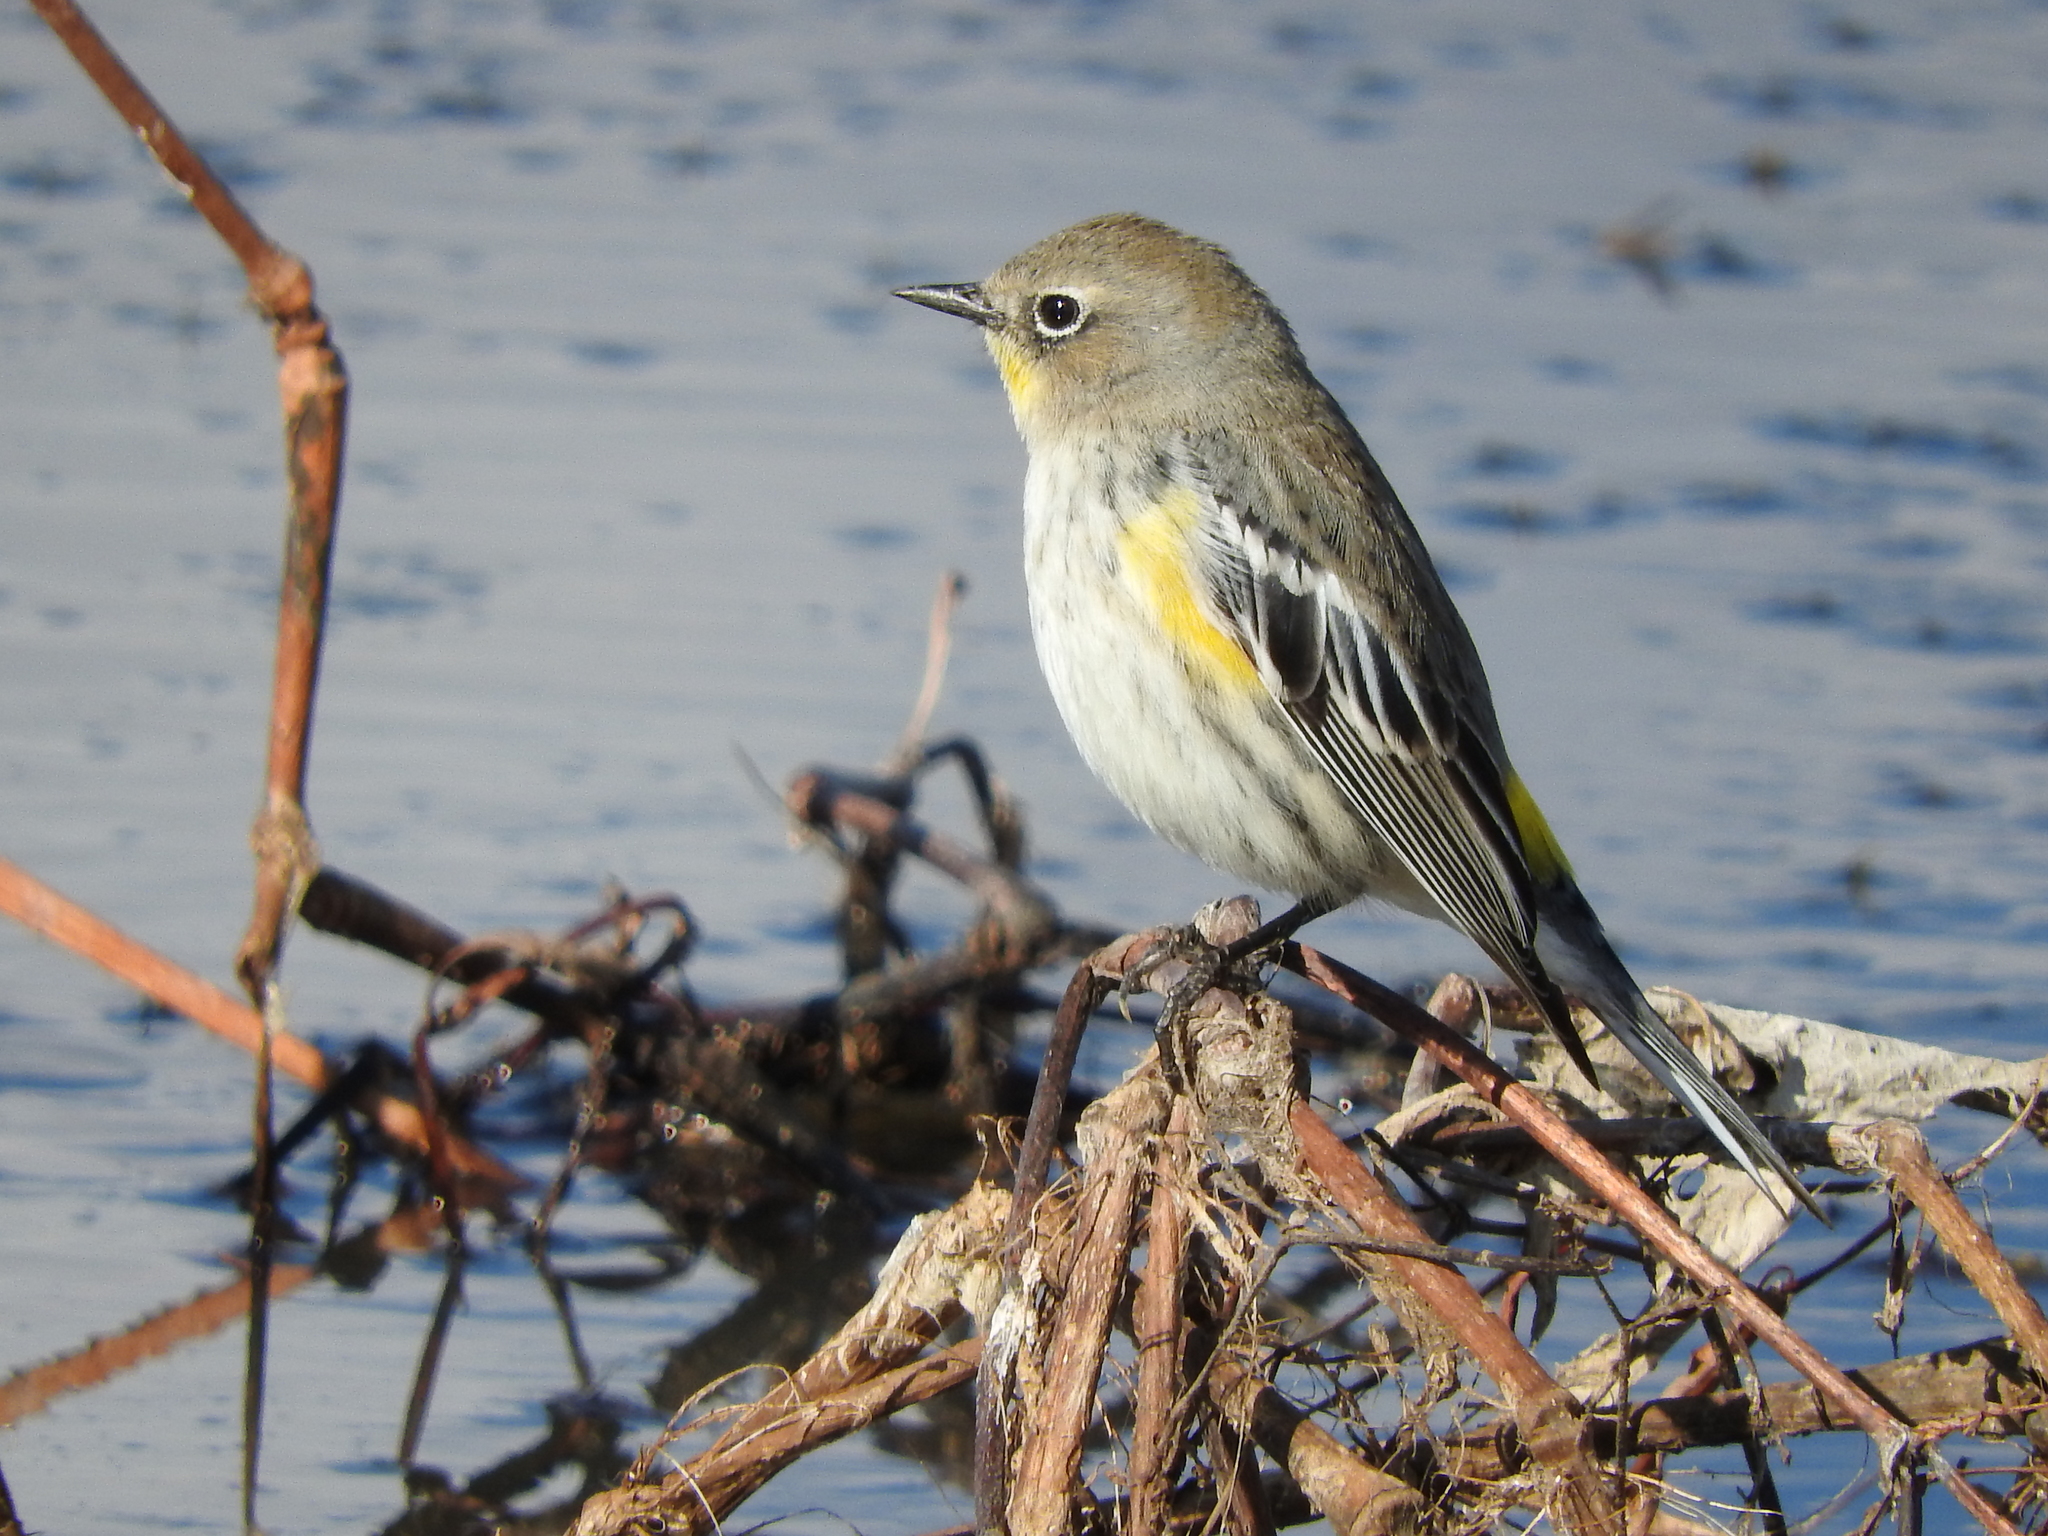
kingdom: Animalia
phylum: Chordata
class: Aves
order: Passeriformes
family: Parulidae
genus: Setophaga
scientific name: Setophaga coronata
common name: Myrtle warbler
